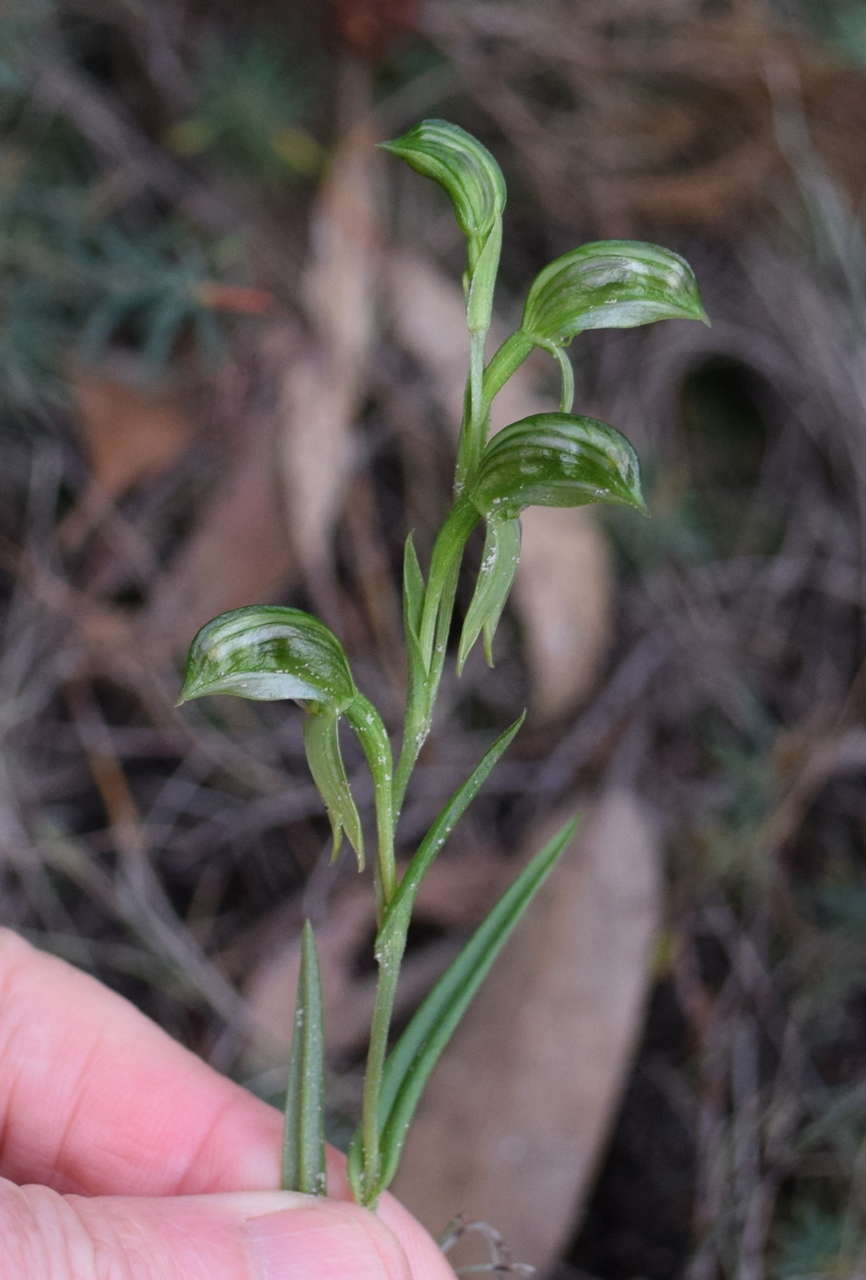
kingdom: Plantae
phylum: Tracheophyta
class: Liliopsida
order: Asparagales
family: Orchidaceae
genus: Pterostylis
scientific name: Pterostylis melagramma
